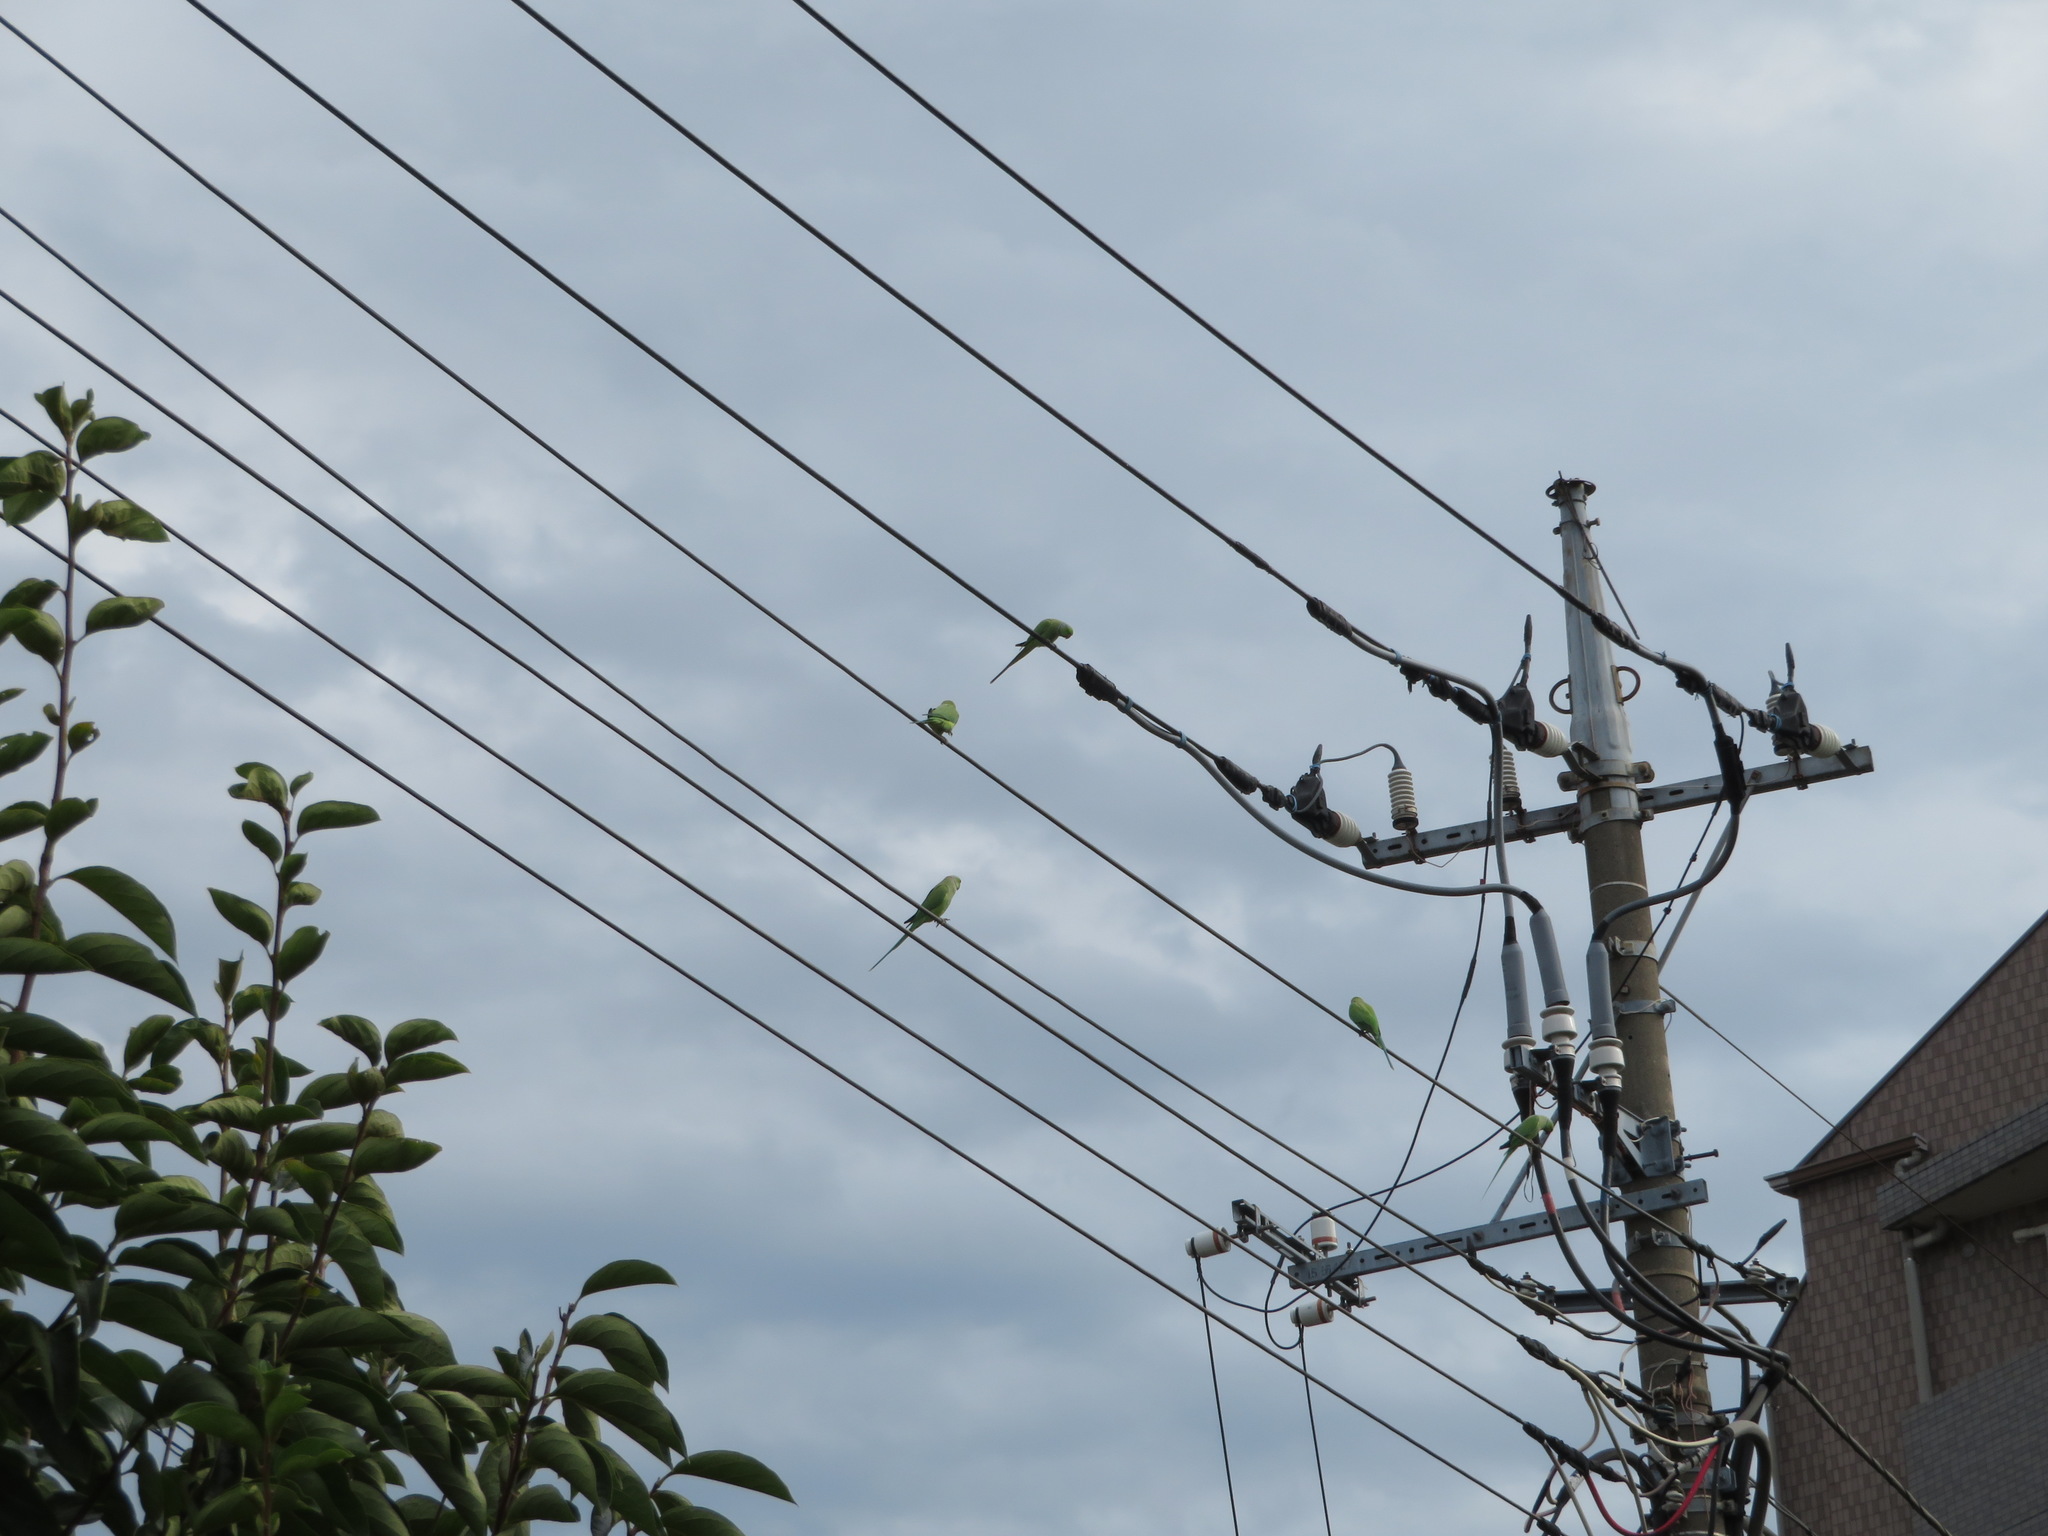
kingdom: Animalia
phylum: Chordata
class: Aves
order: Psittaciformes
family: Psittacidae
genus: Psittacula
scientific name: Psittacula krameri
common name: Rose-ringed parakeet
